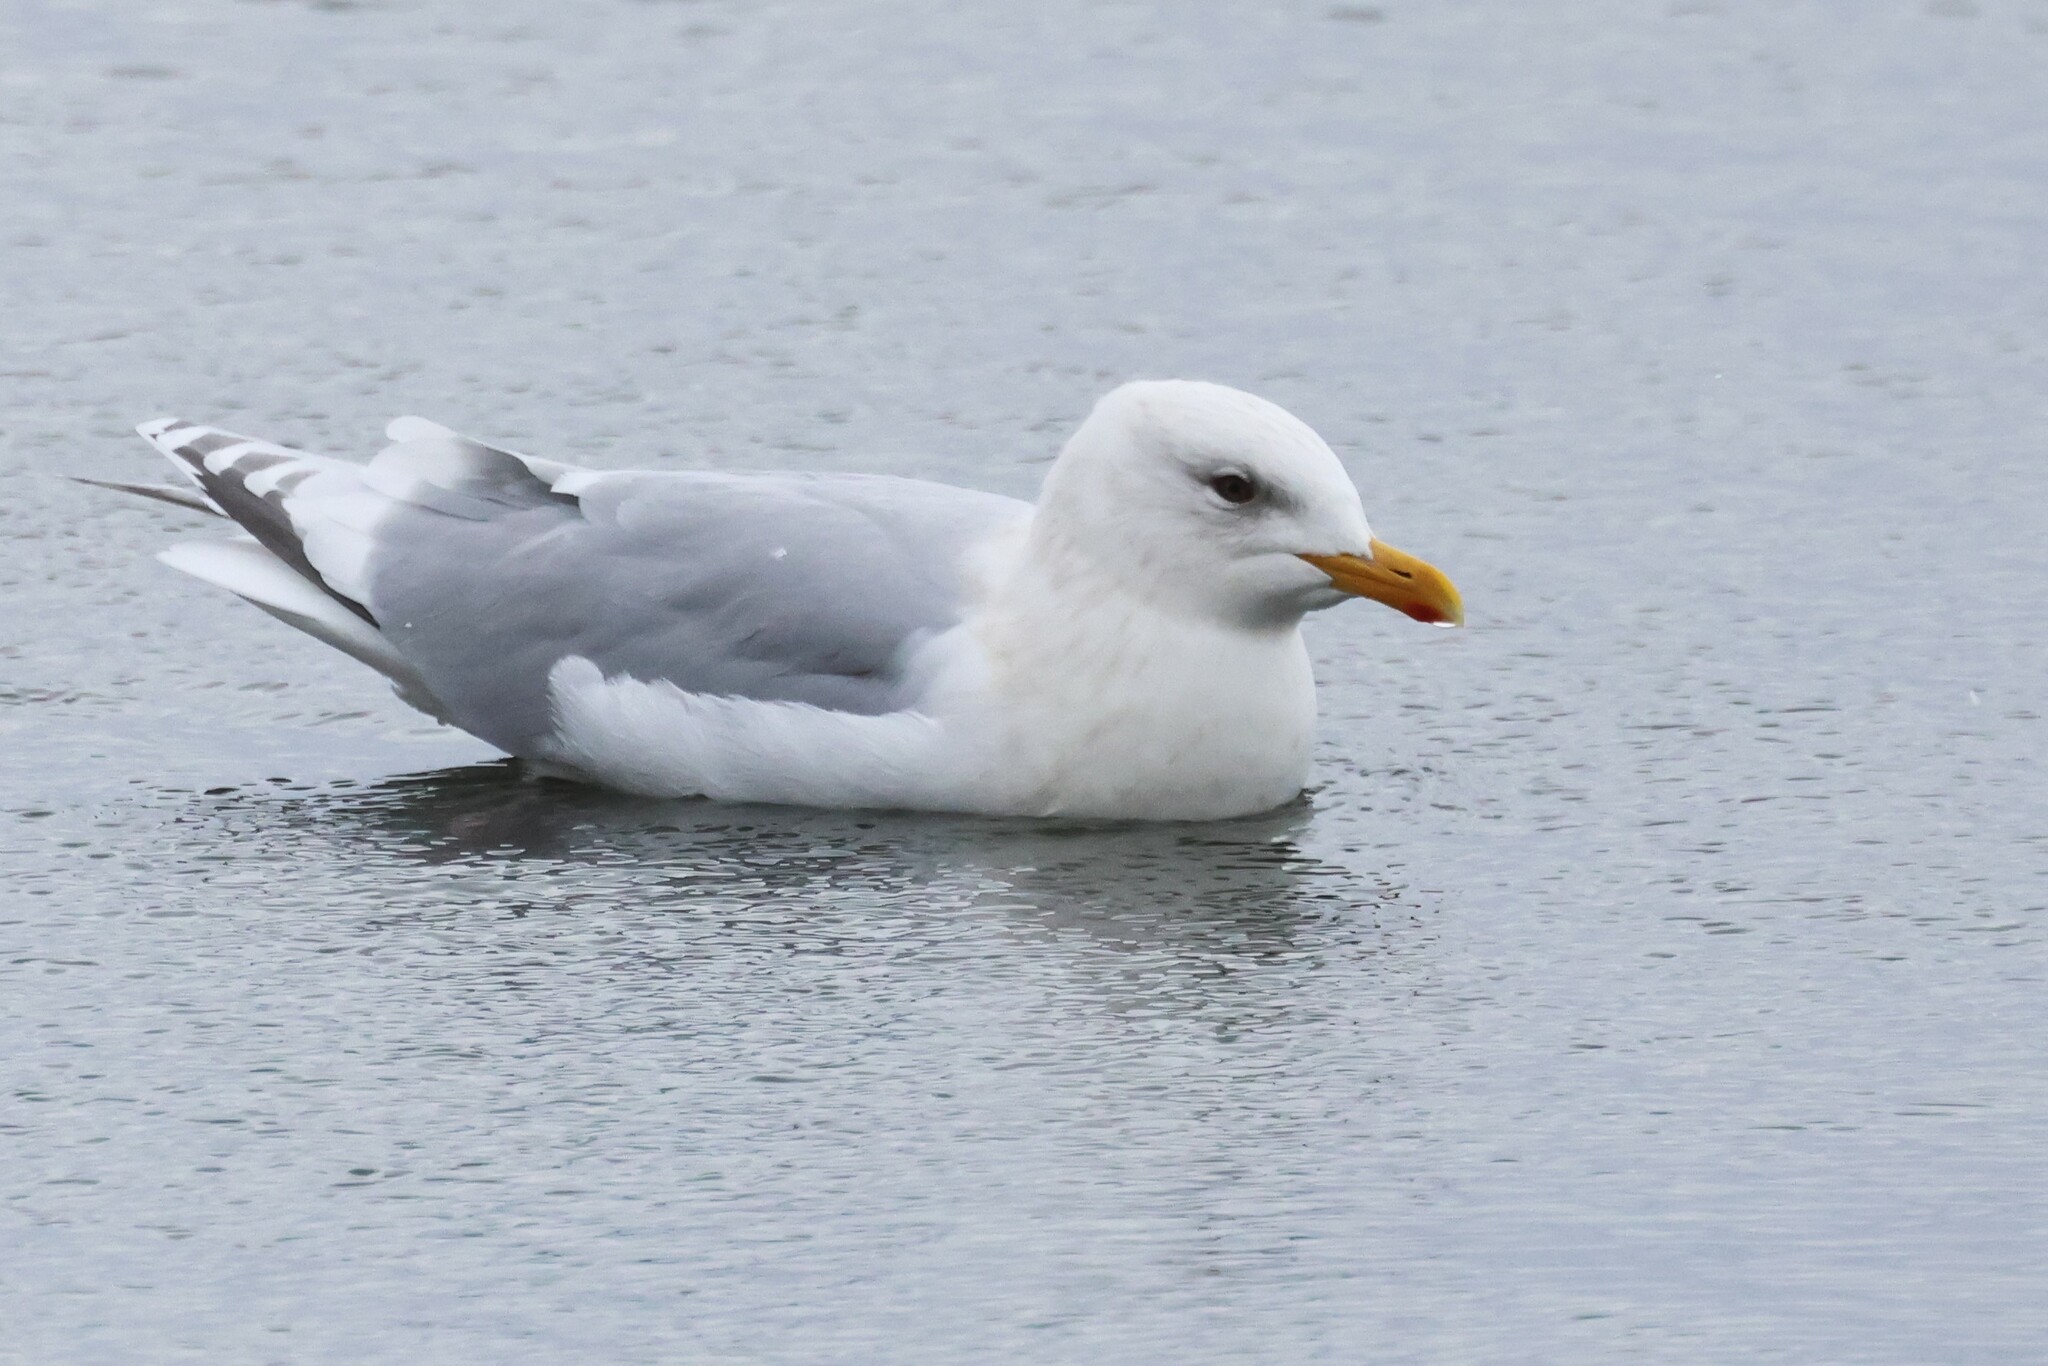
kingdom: Animalia
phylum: Chordata
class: Aves
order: Charadriiformes
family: Laridae
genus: Larus
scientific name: Larus glaucoides
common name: Iceland gull
